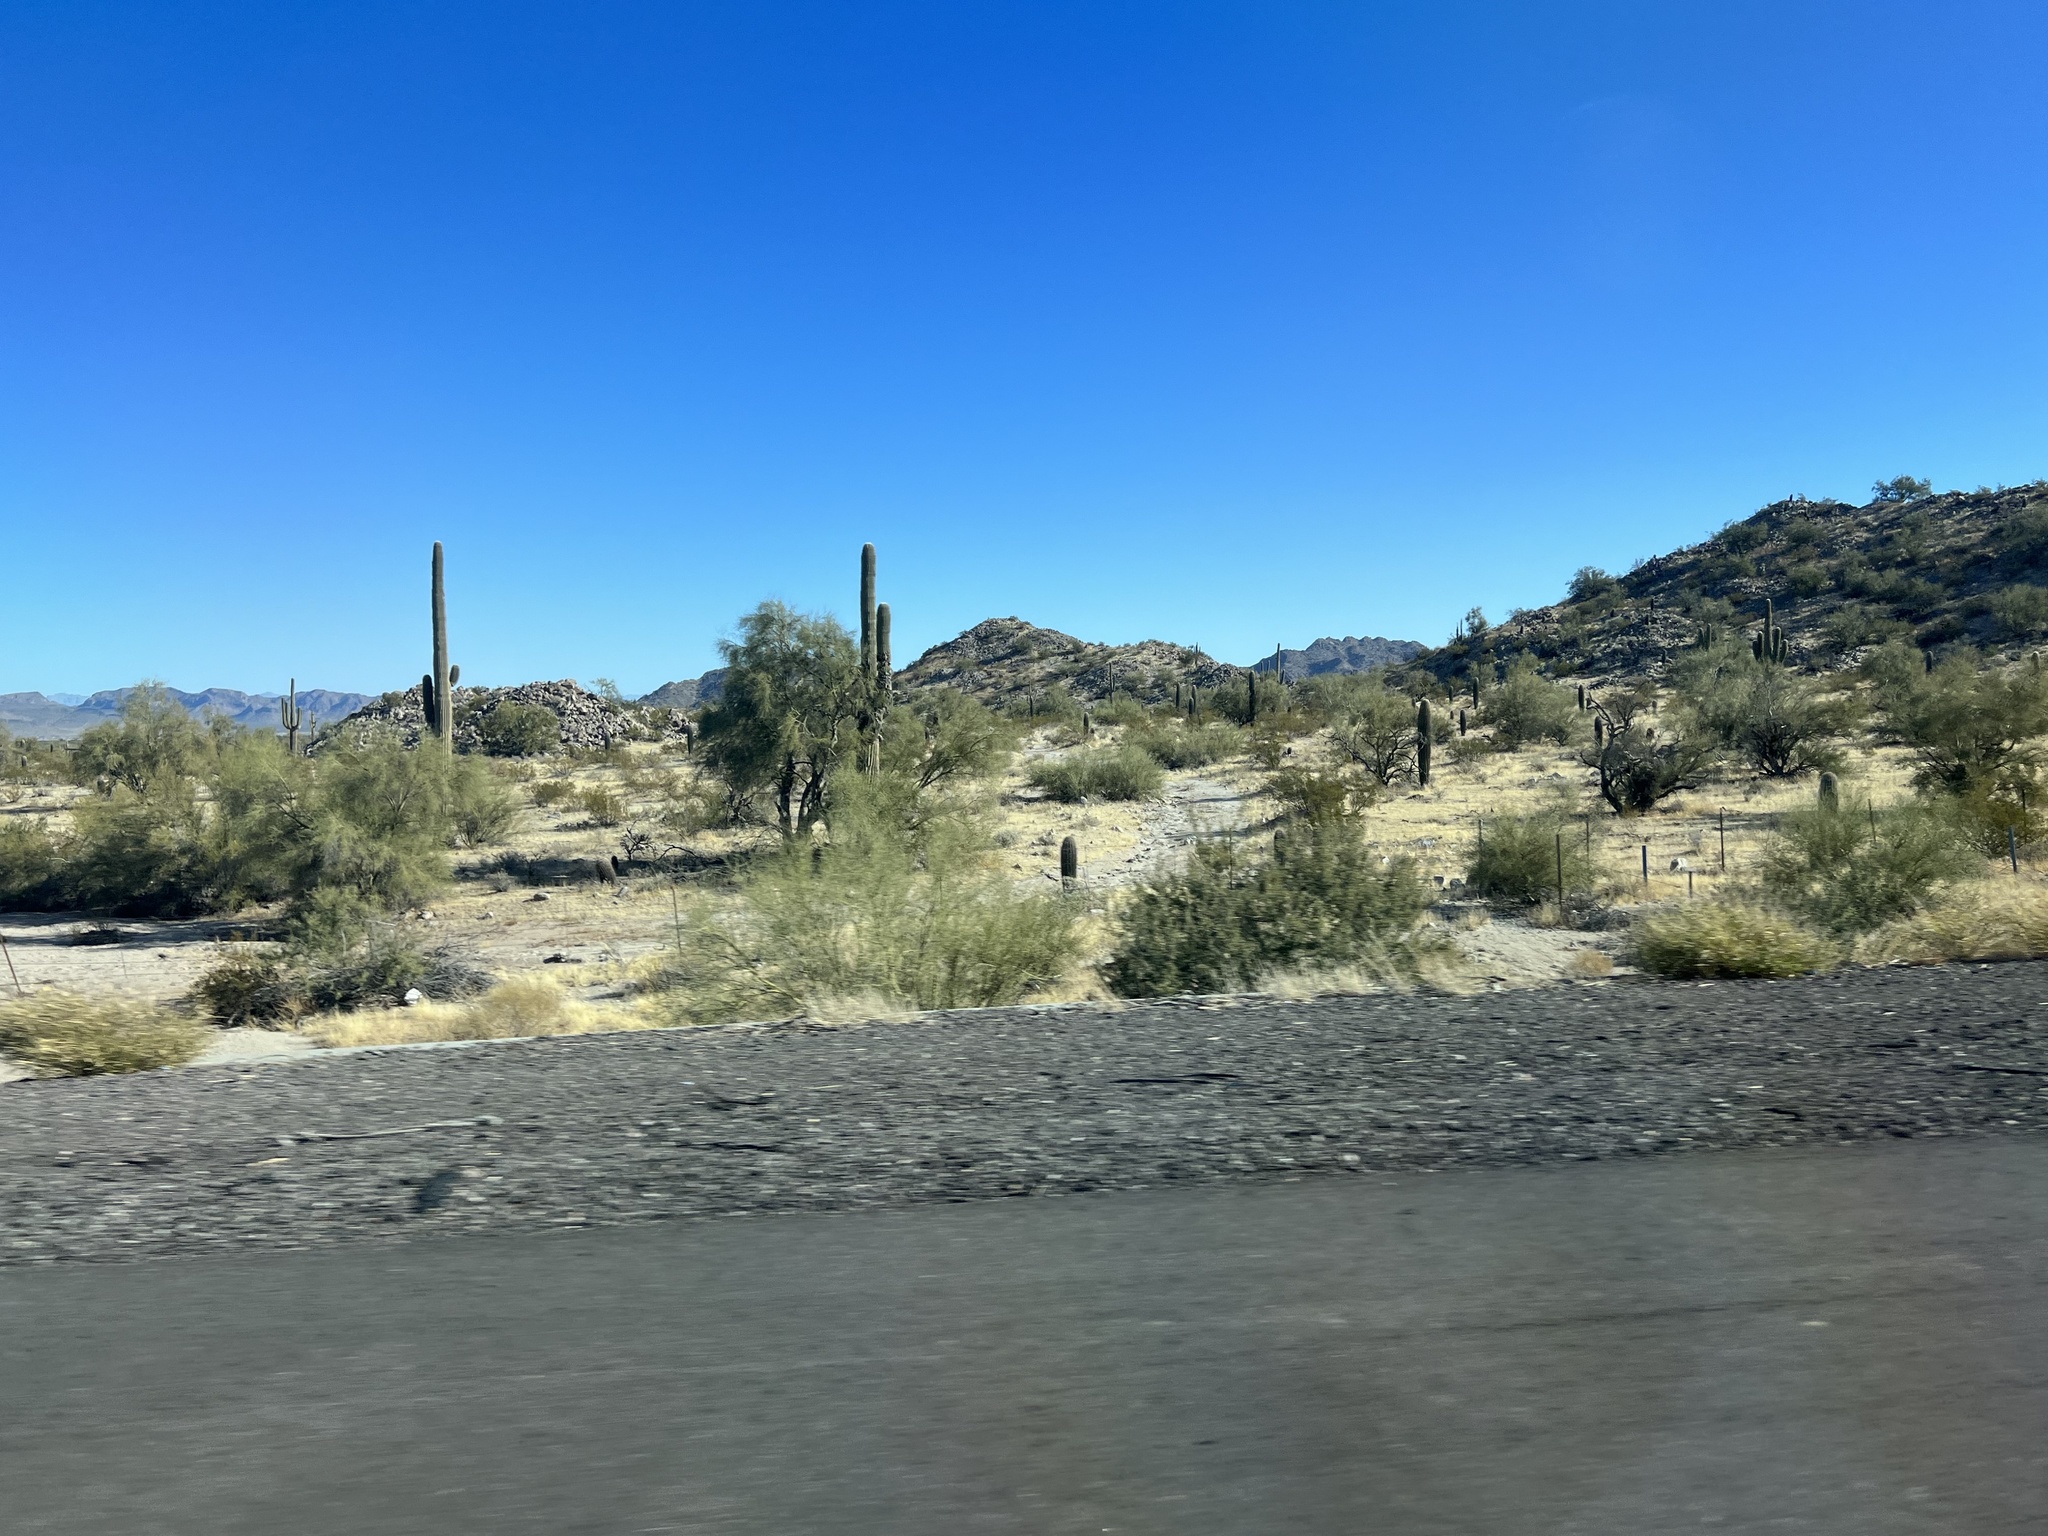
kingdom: Plantae
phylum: Tracheophyta
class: Magnoliopsida
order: Caryophyllales
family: Cactaceae
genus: Carnegiea
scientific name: Carnegiea gigantea
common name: Saguaro
